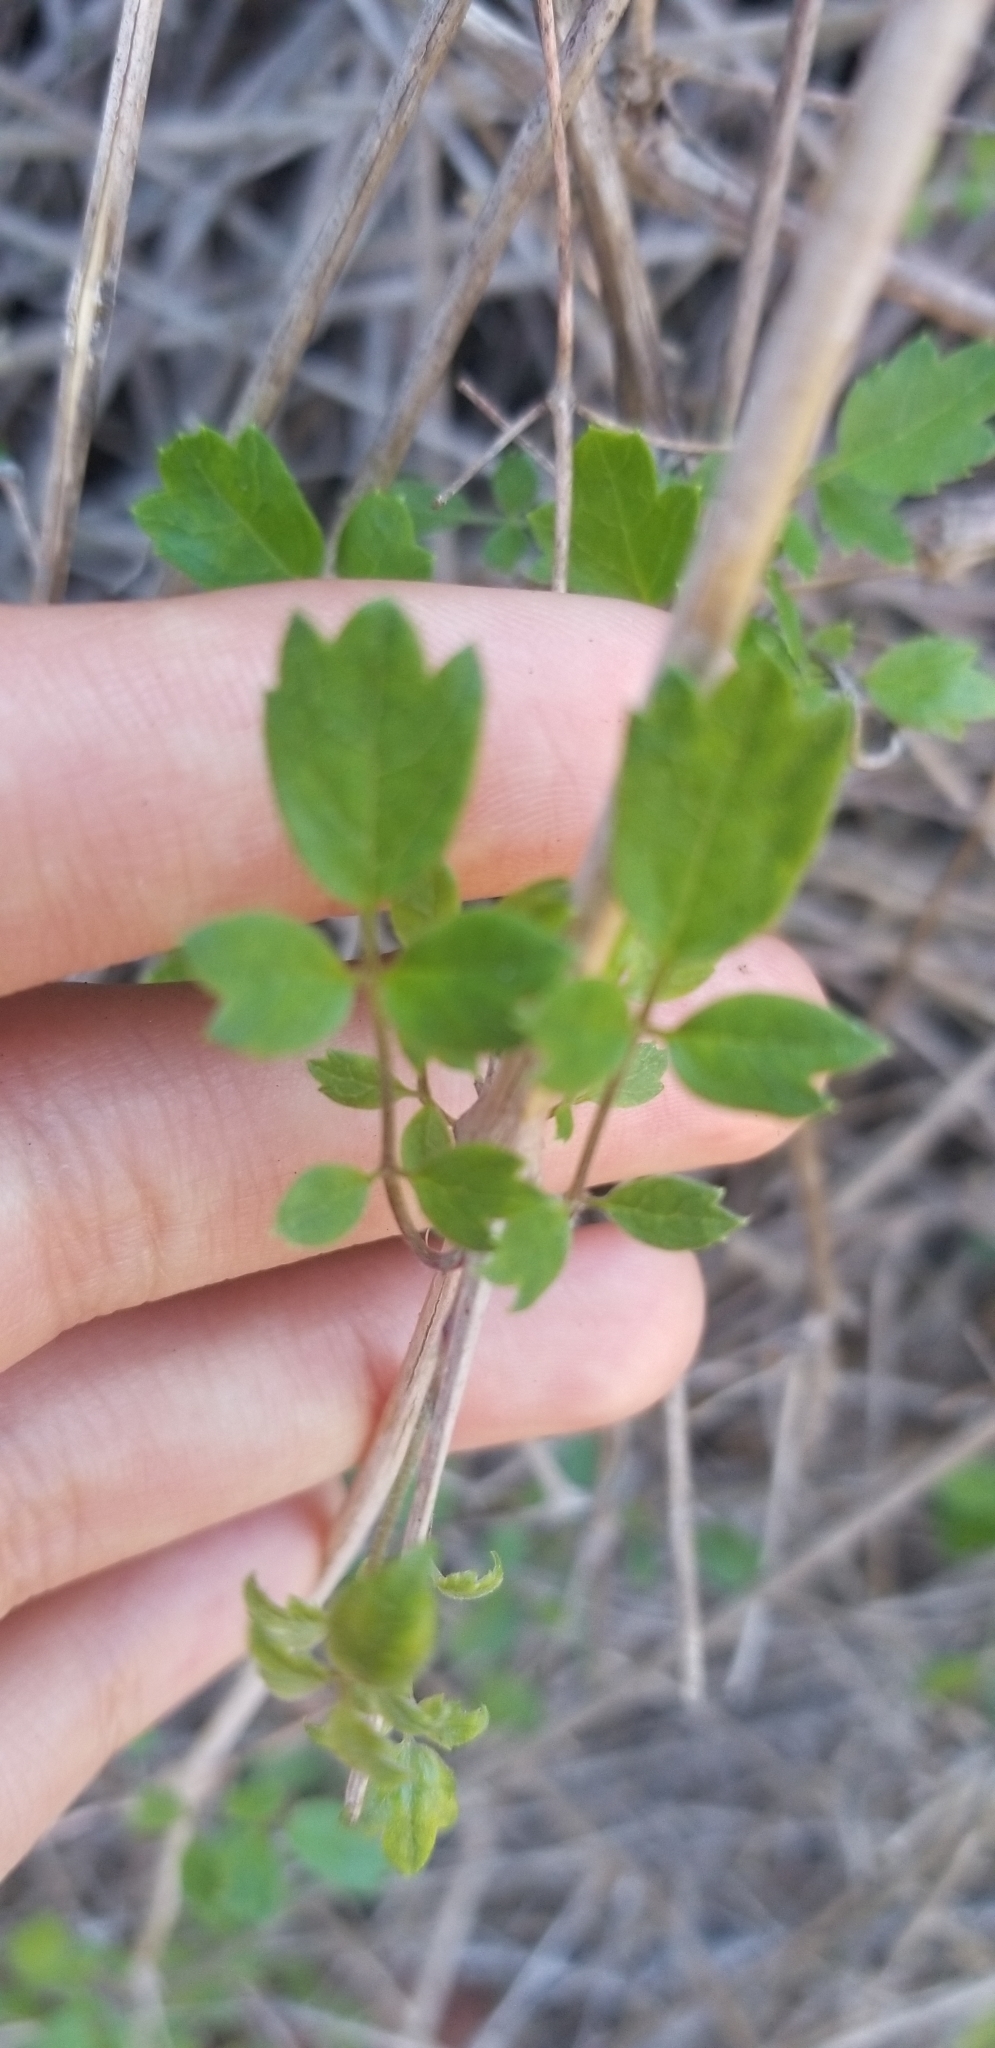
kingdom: Plantae
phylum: Tracheophyta
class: Magnoliopsida
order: Ranunculales
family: Ranunculaceae
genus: Clematis
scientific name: Clematis pauciflora
